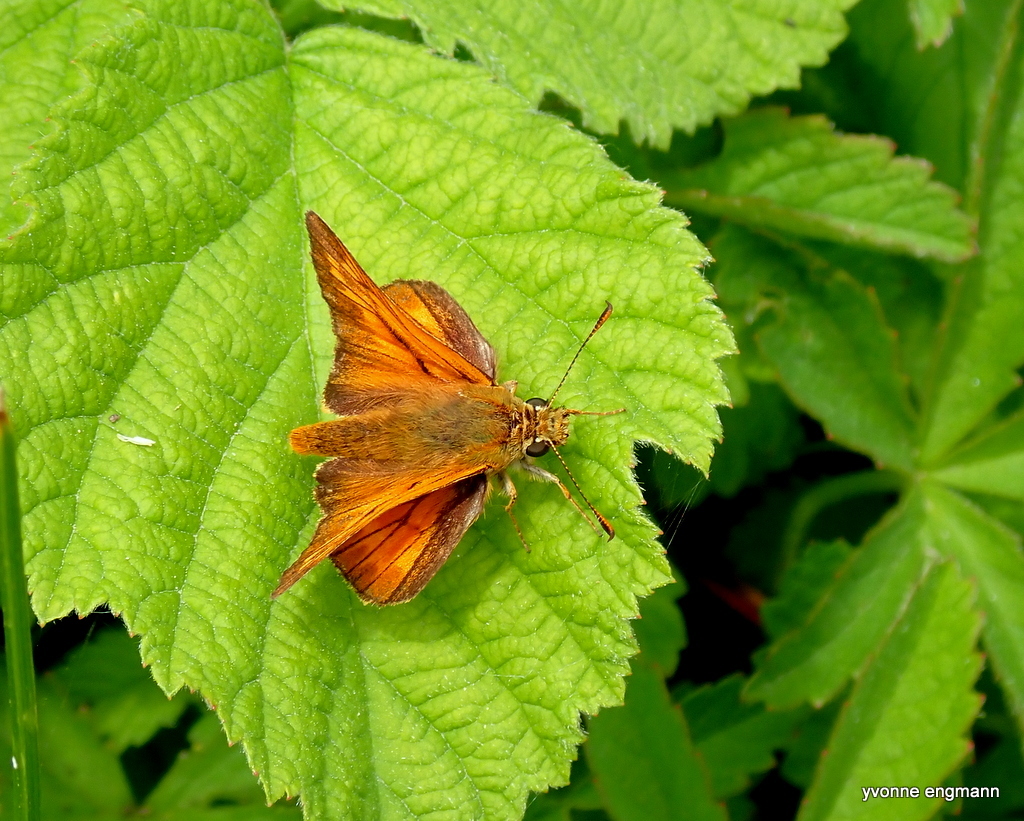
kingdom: Animalia
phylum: Arthropoda
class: Insecta
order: Lepidoptera
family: Hesperiidae
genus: Ochlodes
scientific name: Ochlodes venata
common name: Large skipper
